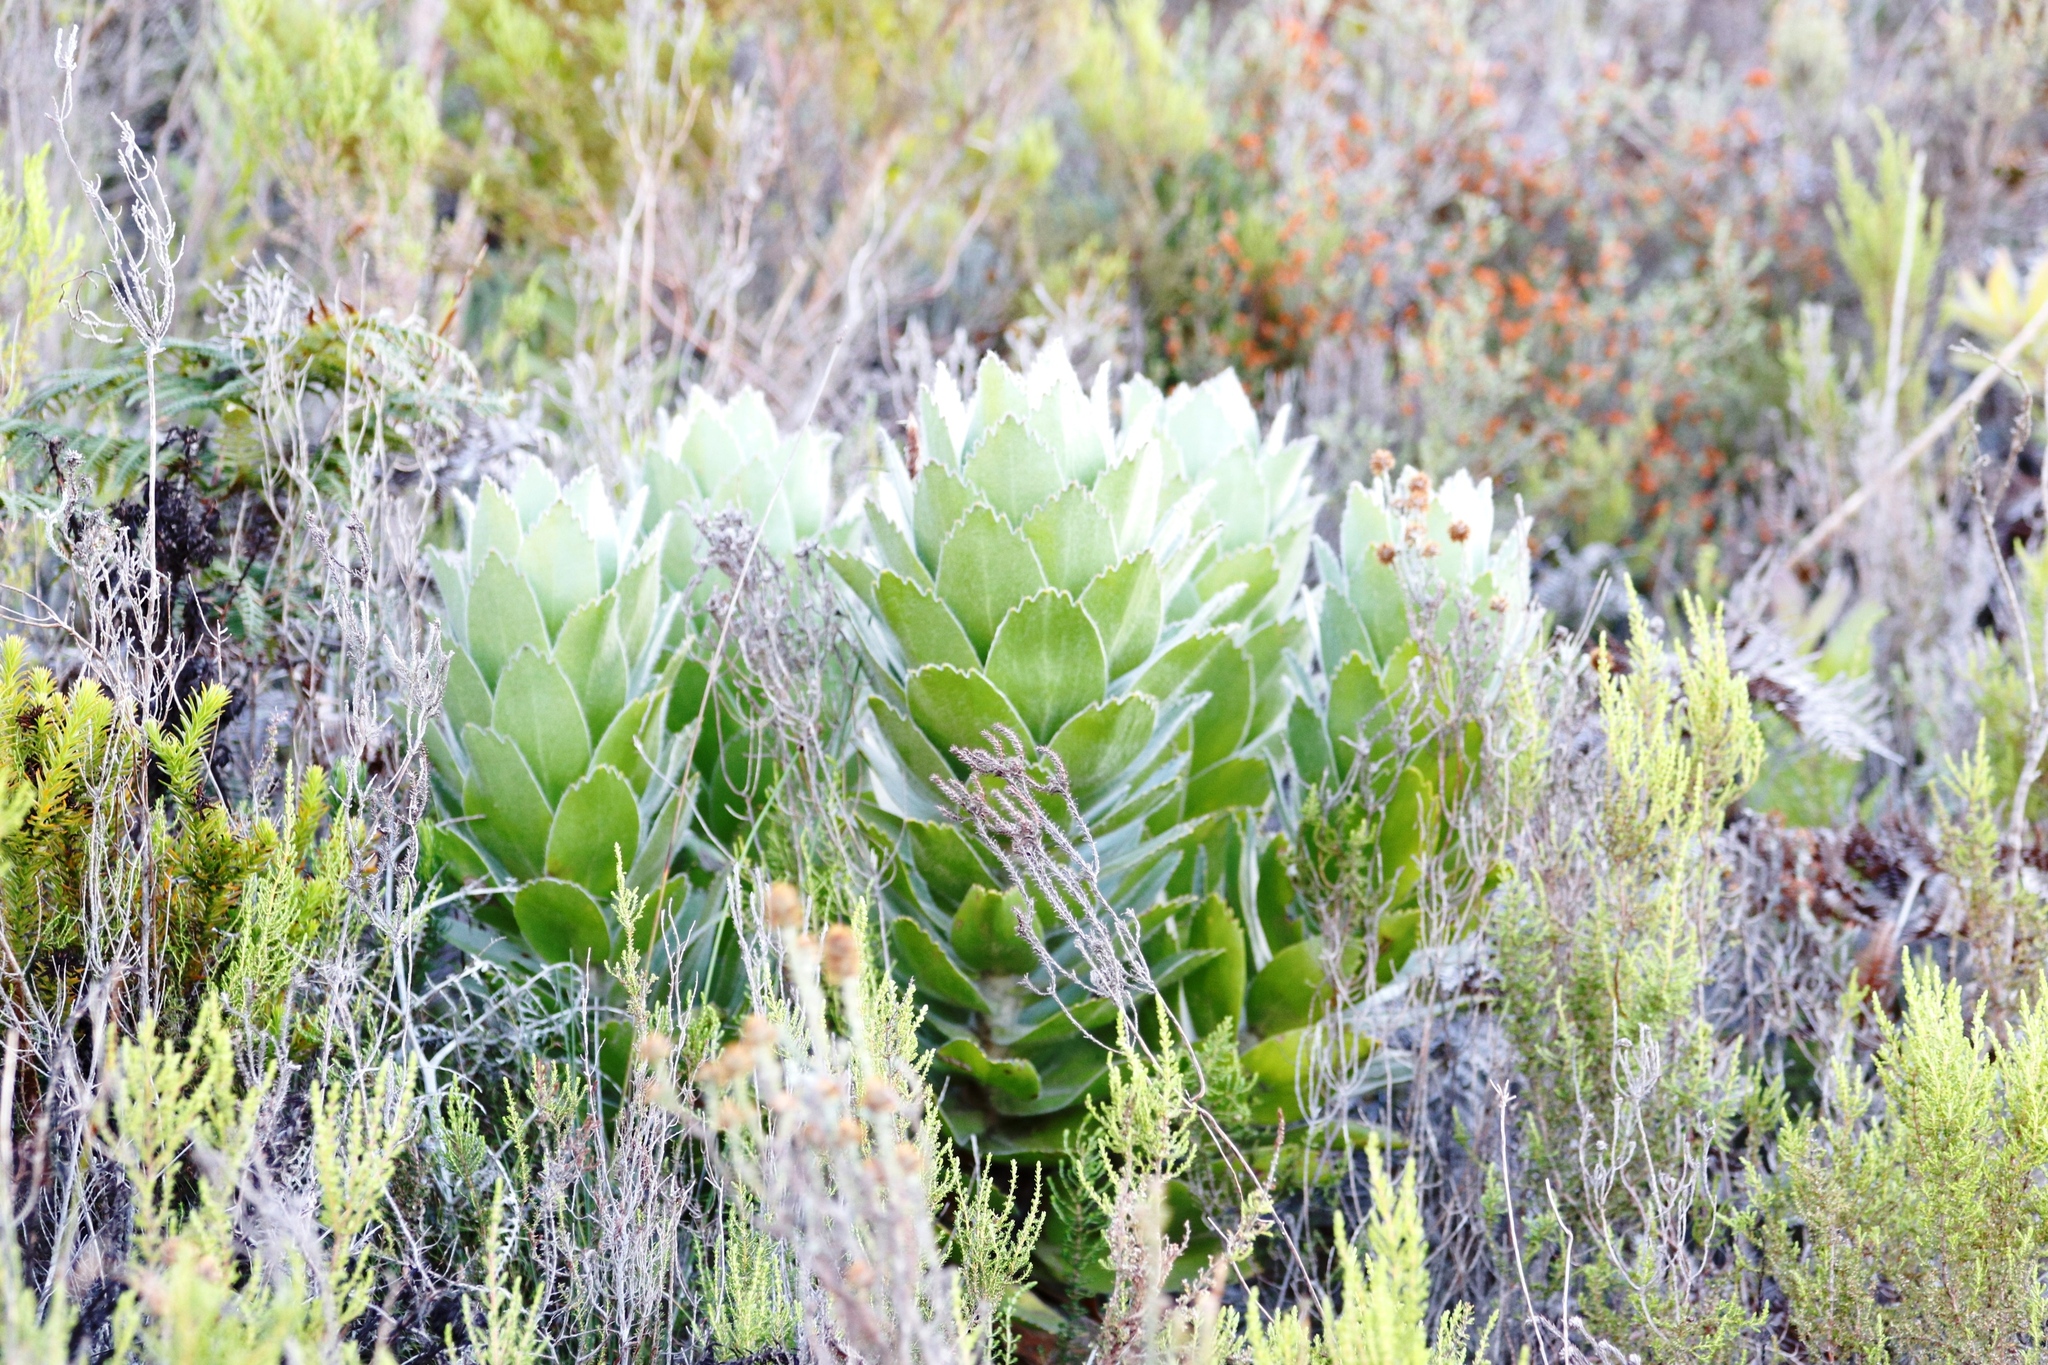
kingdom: Plantae
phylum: Tracheophyta
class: Magnoliopsida
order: Proteales
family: Proteaceae
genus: Leucospermum
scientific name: Leucospermum conocarpodendron
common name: Tree pincushion
